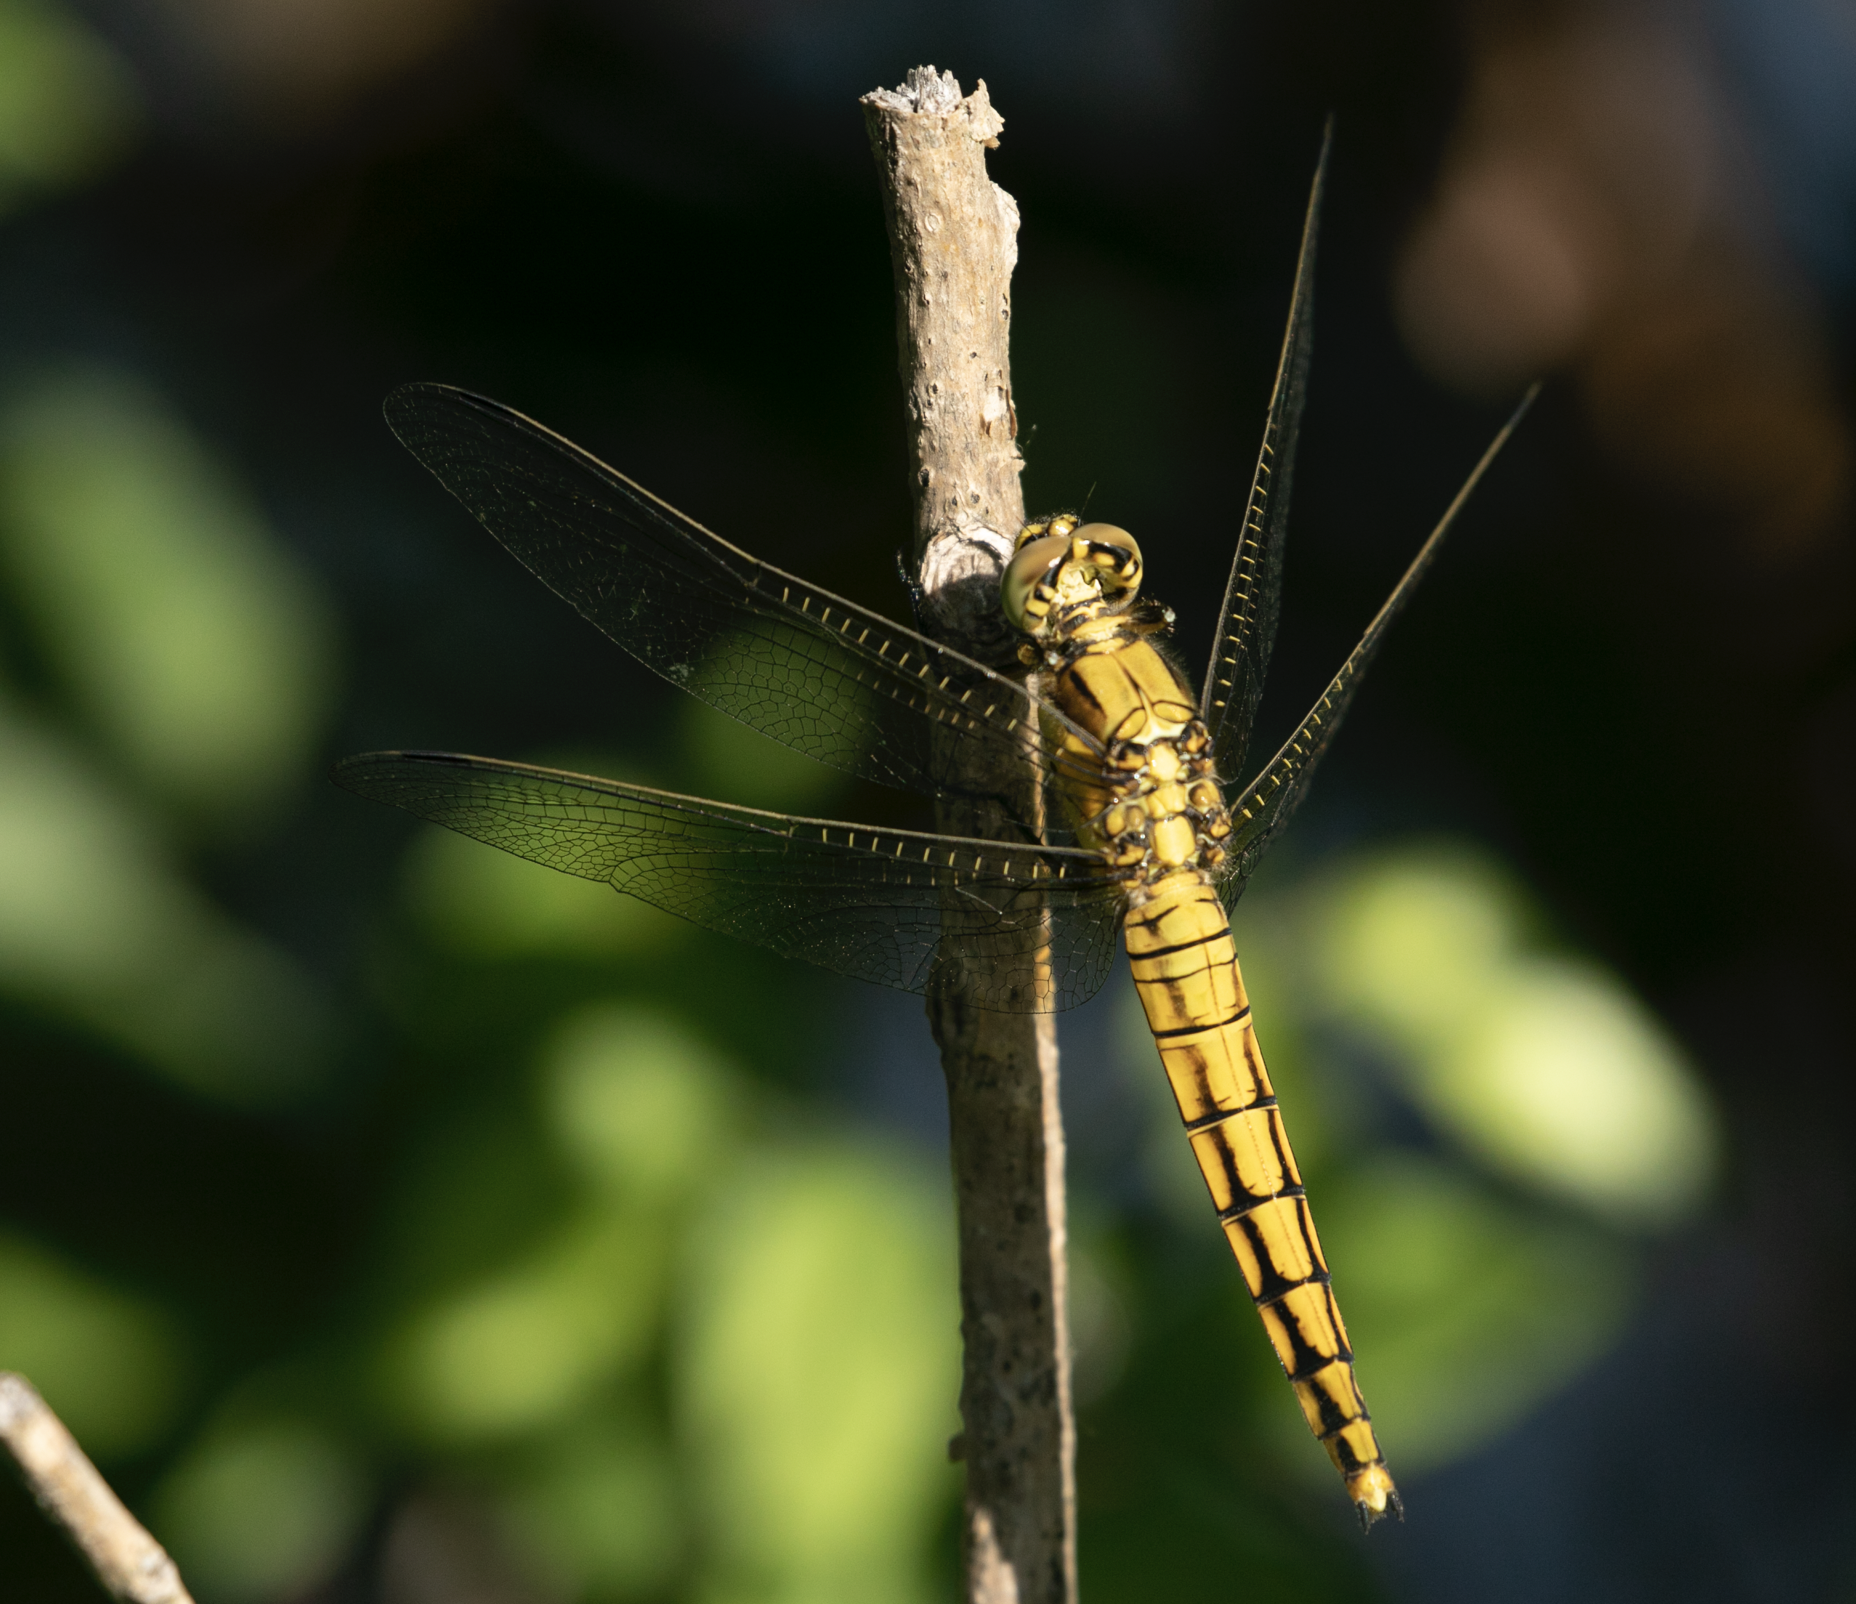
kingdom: Animalia
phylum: Arthropoda
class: Insecta
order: Odonata
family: Libellulidae
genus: Orthetrum
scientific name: Orthetrum cancellatum
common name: Black-tailed skimmer
